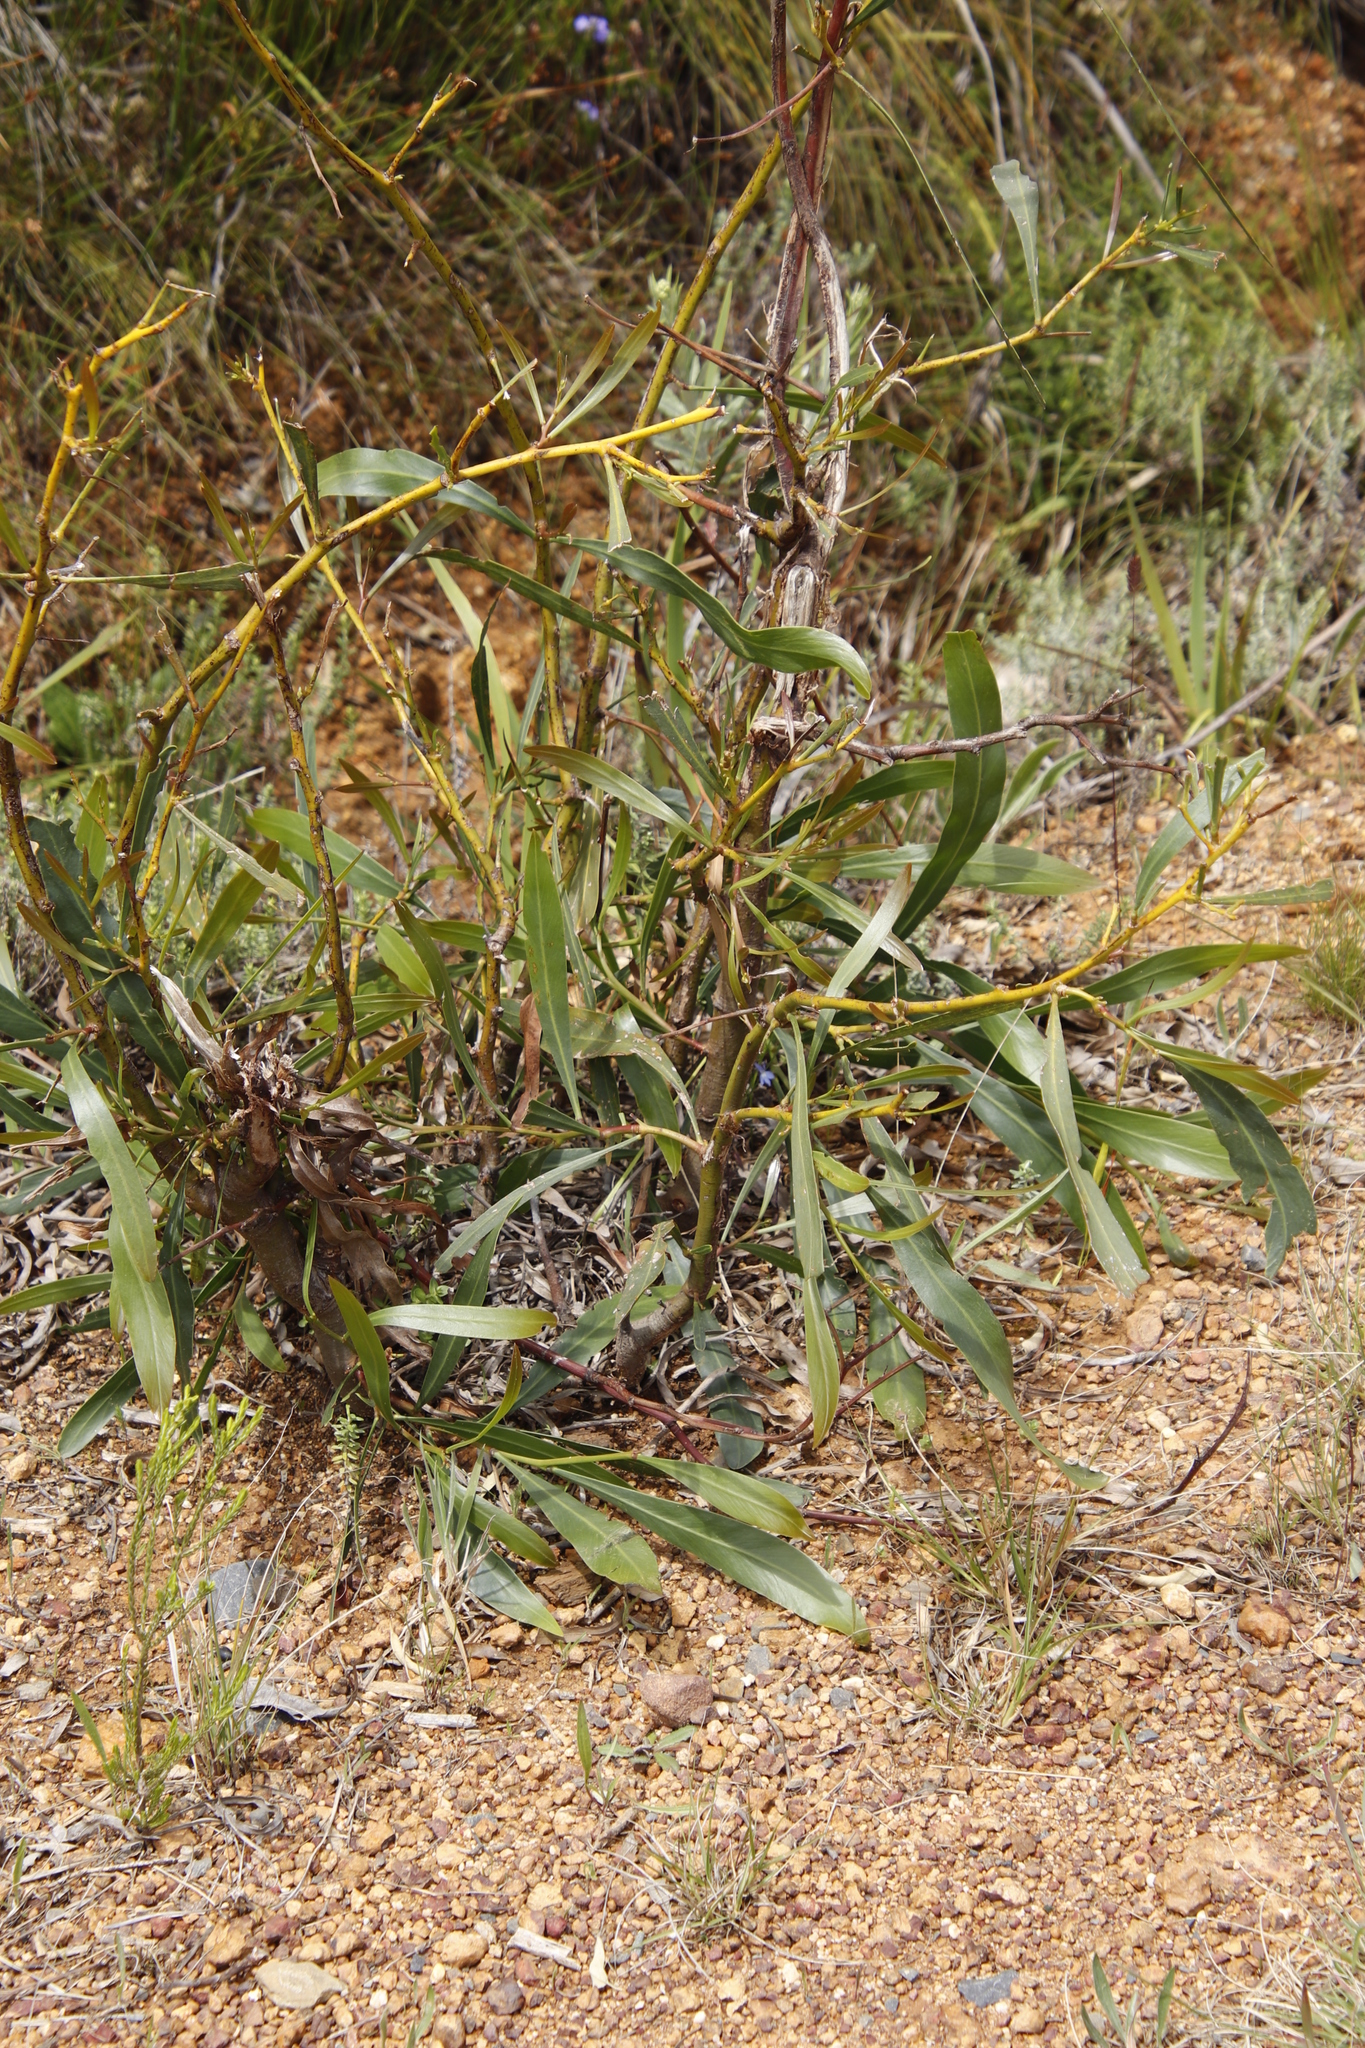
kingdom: Plantae
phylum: Tracheophyta
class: Magnoliopsida
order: Fabales
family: Fabaceae
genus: Acacia
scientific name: Acacia saligna
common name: Orange wattle
